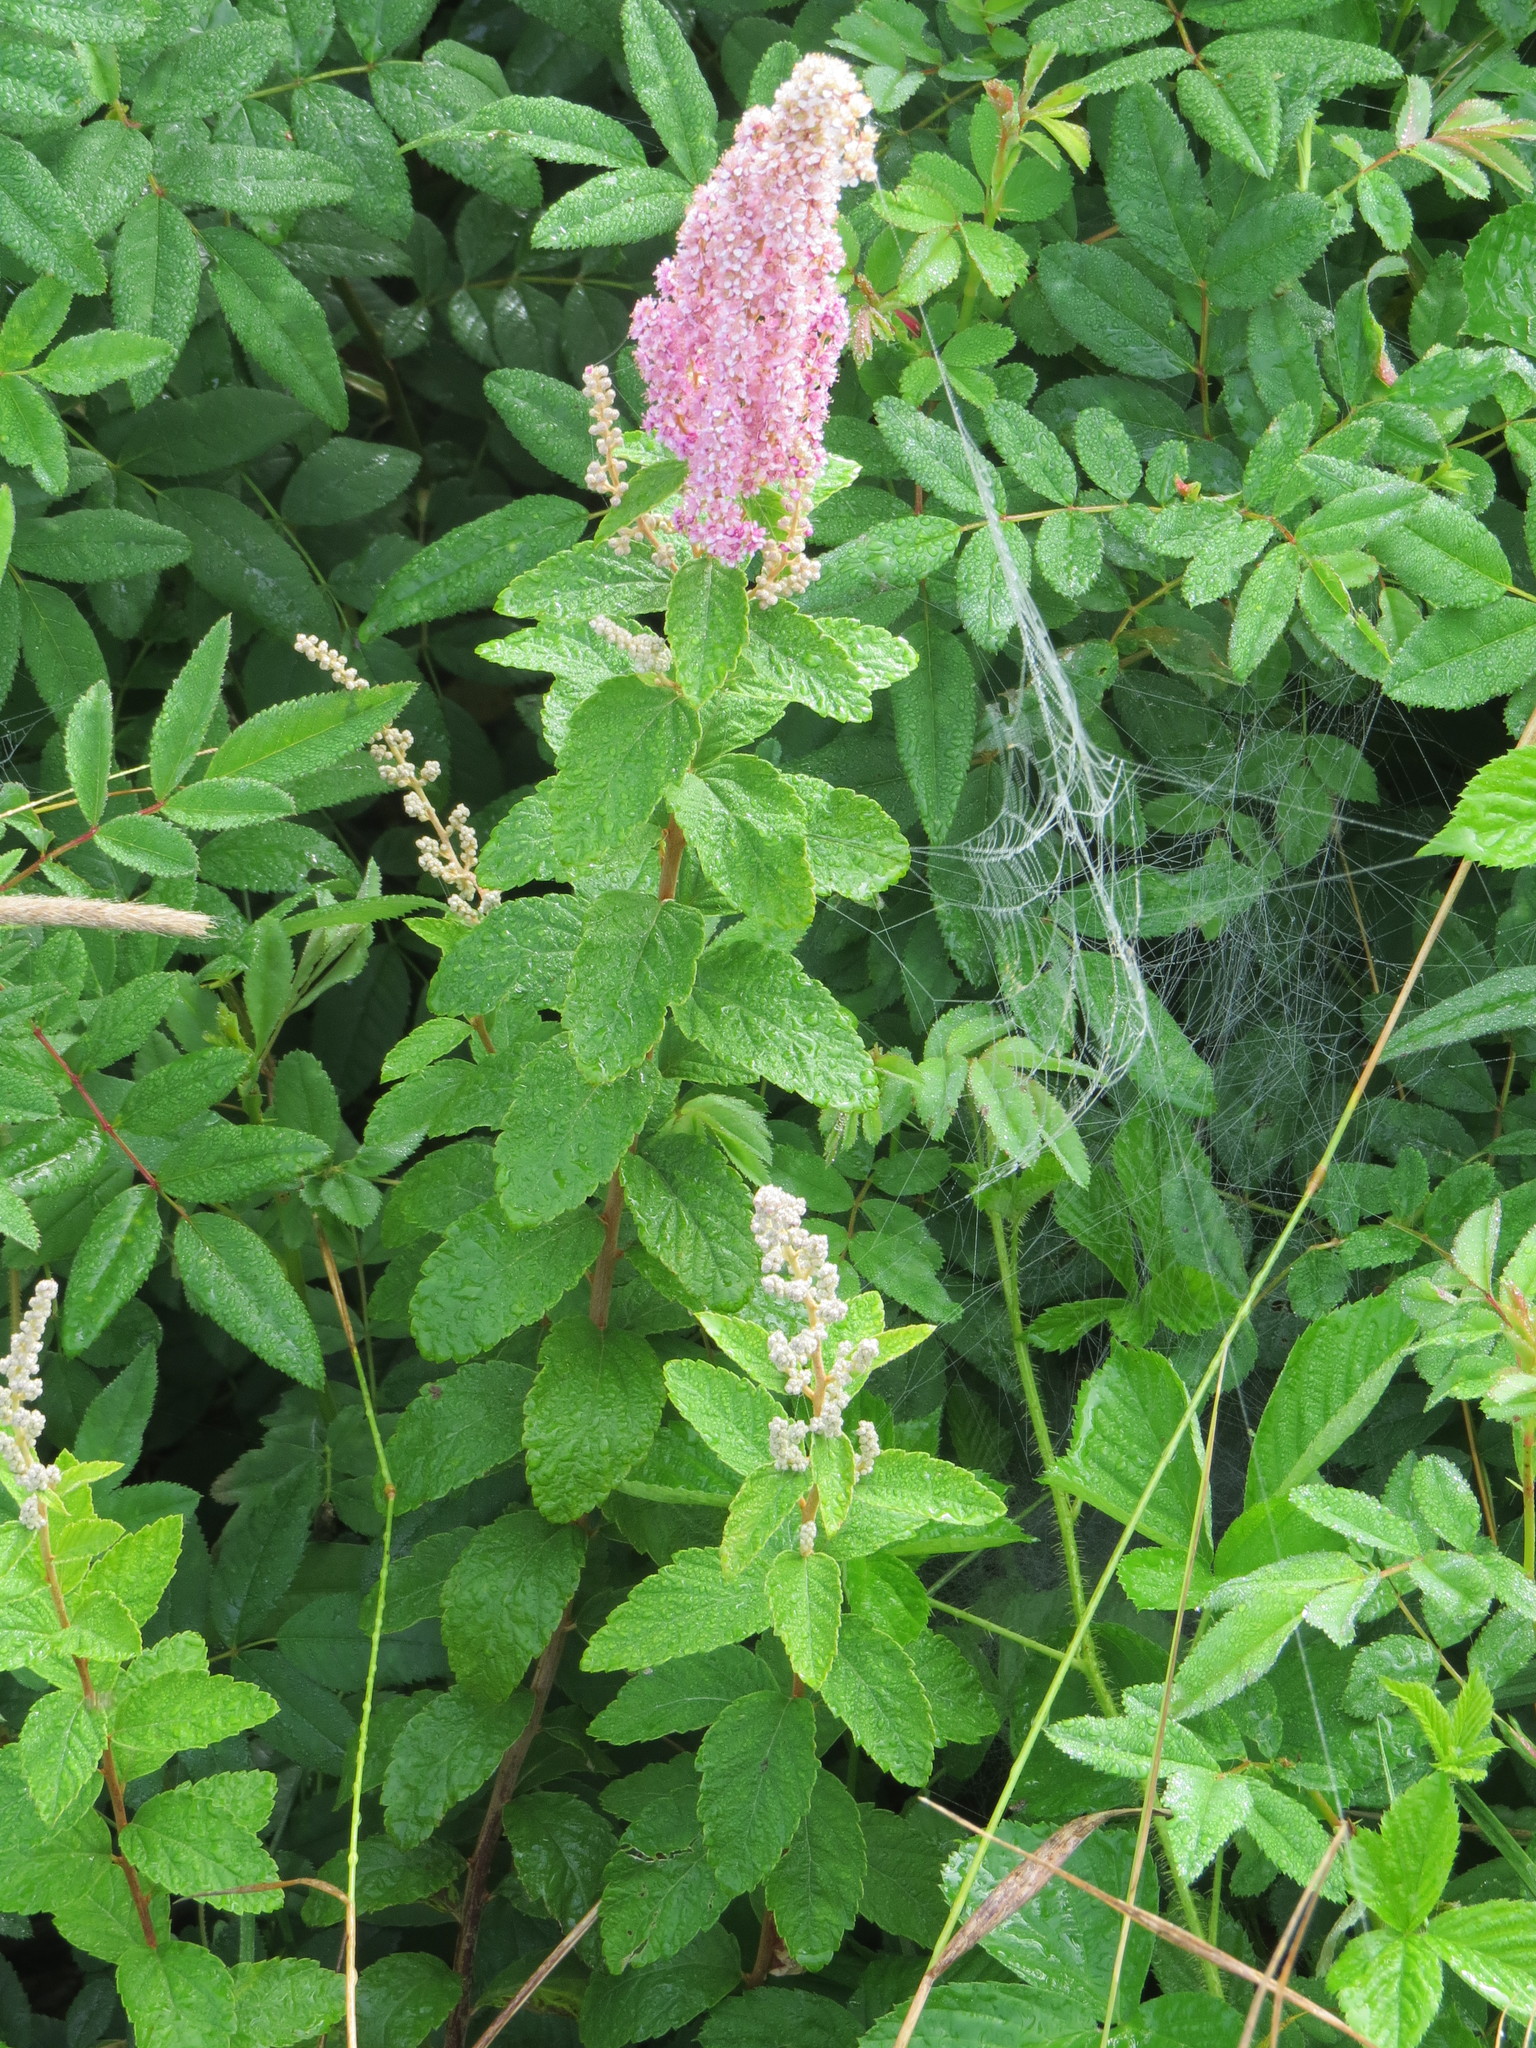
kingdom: Plantae
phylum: Tracheophyta
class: Magnoliopsida
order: Rosales
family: Rosaceae
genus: Spiraea
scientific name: Spiraea tomentosa
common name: Hardhack
